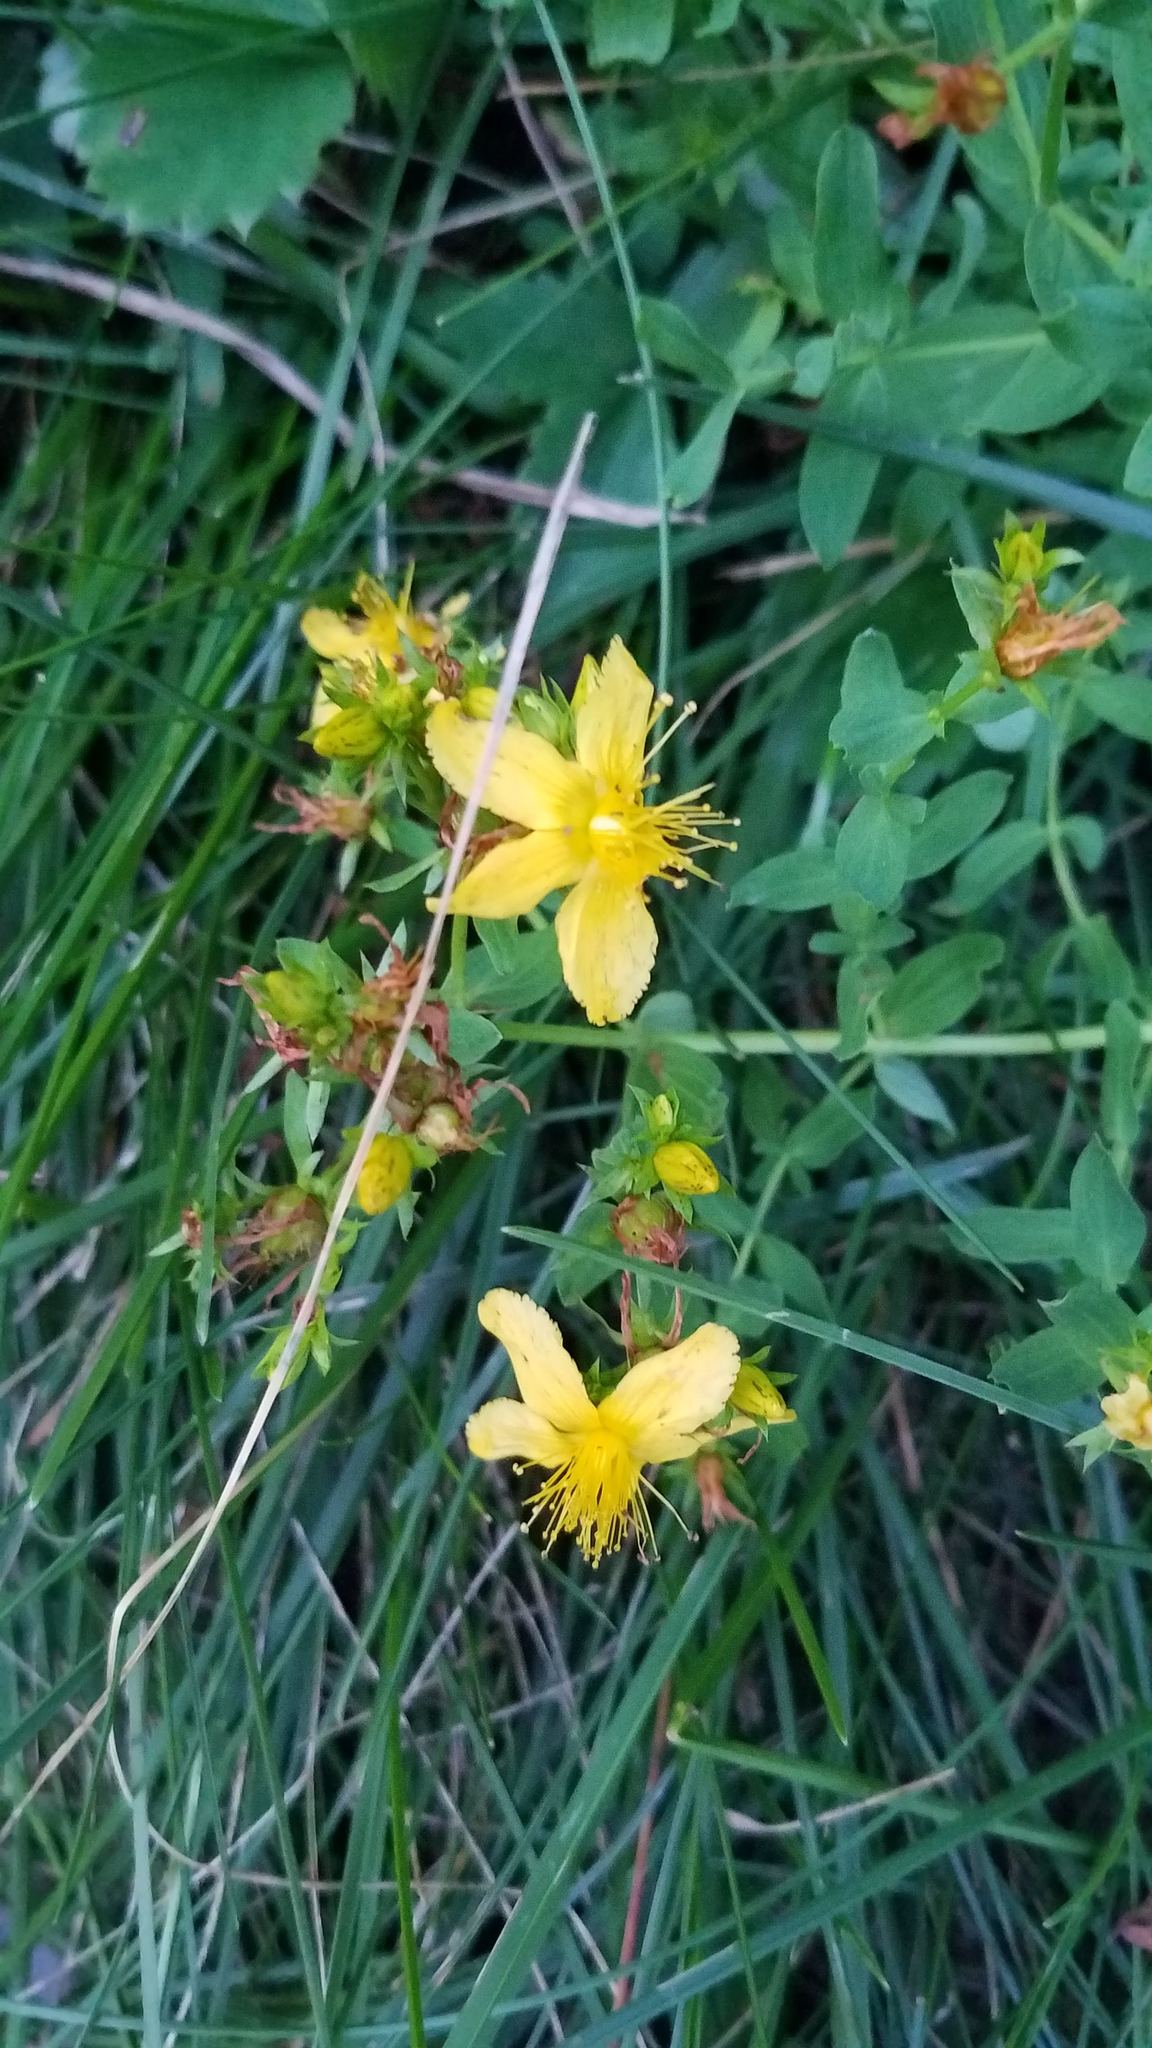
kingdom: Plantae
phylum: Tracheophyta
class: Magnoliopsida
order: Malpighiales
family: Hypericaceae
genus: Hypericum
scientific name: Hypericum perforatum
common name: Common st. johnswort
